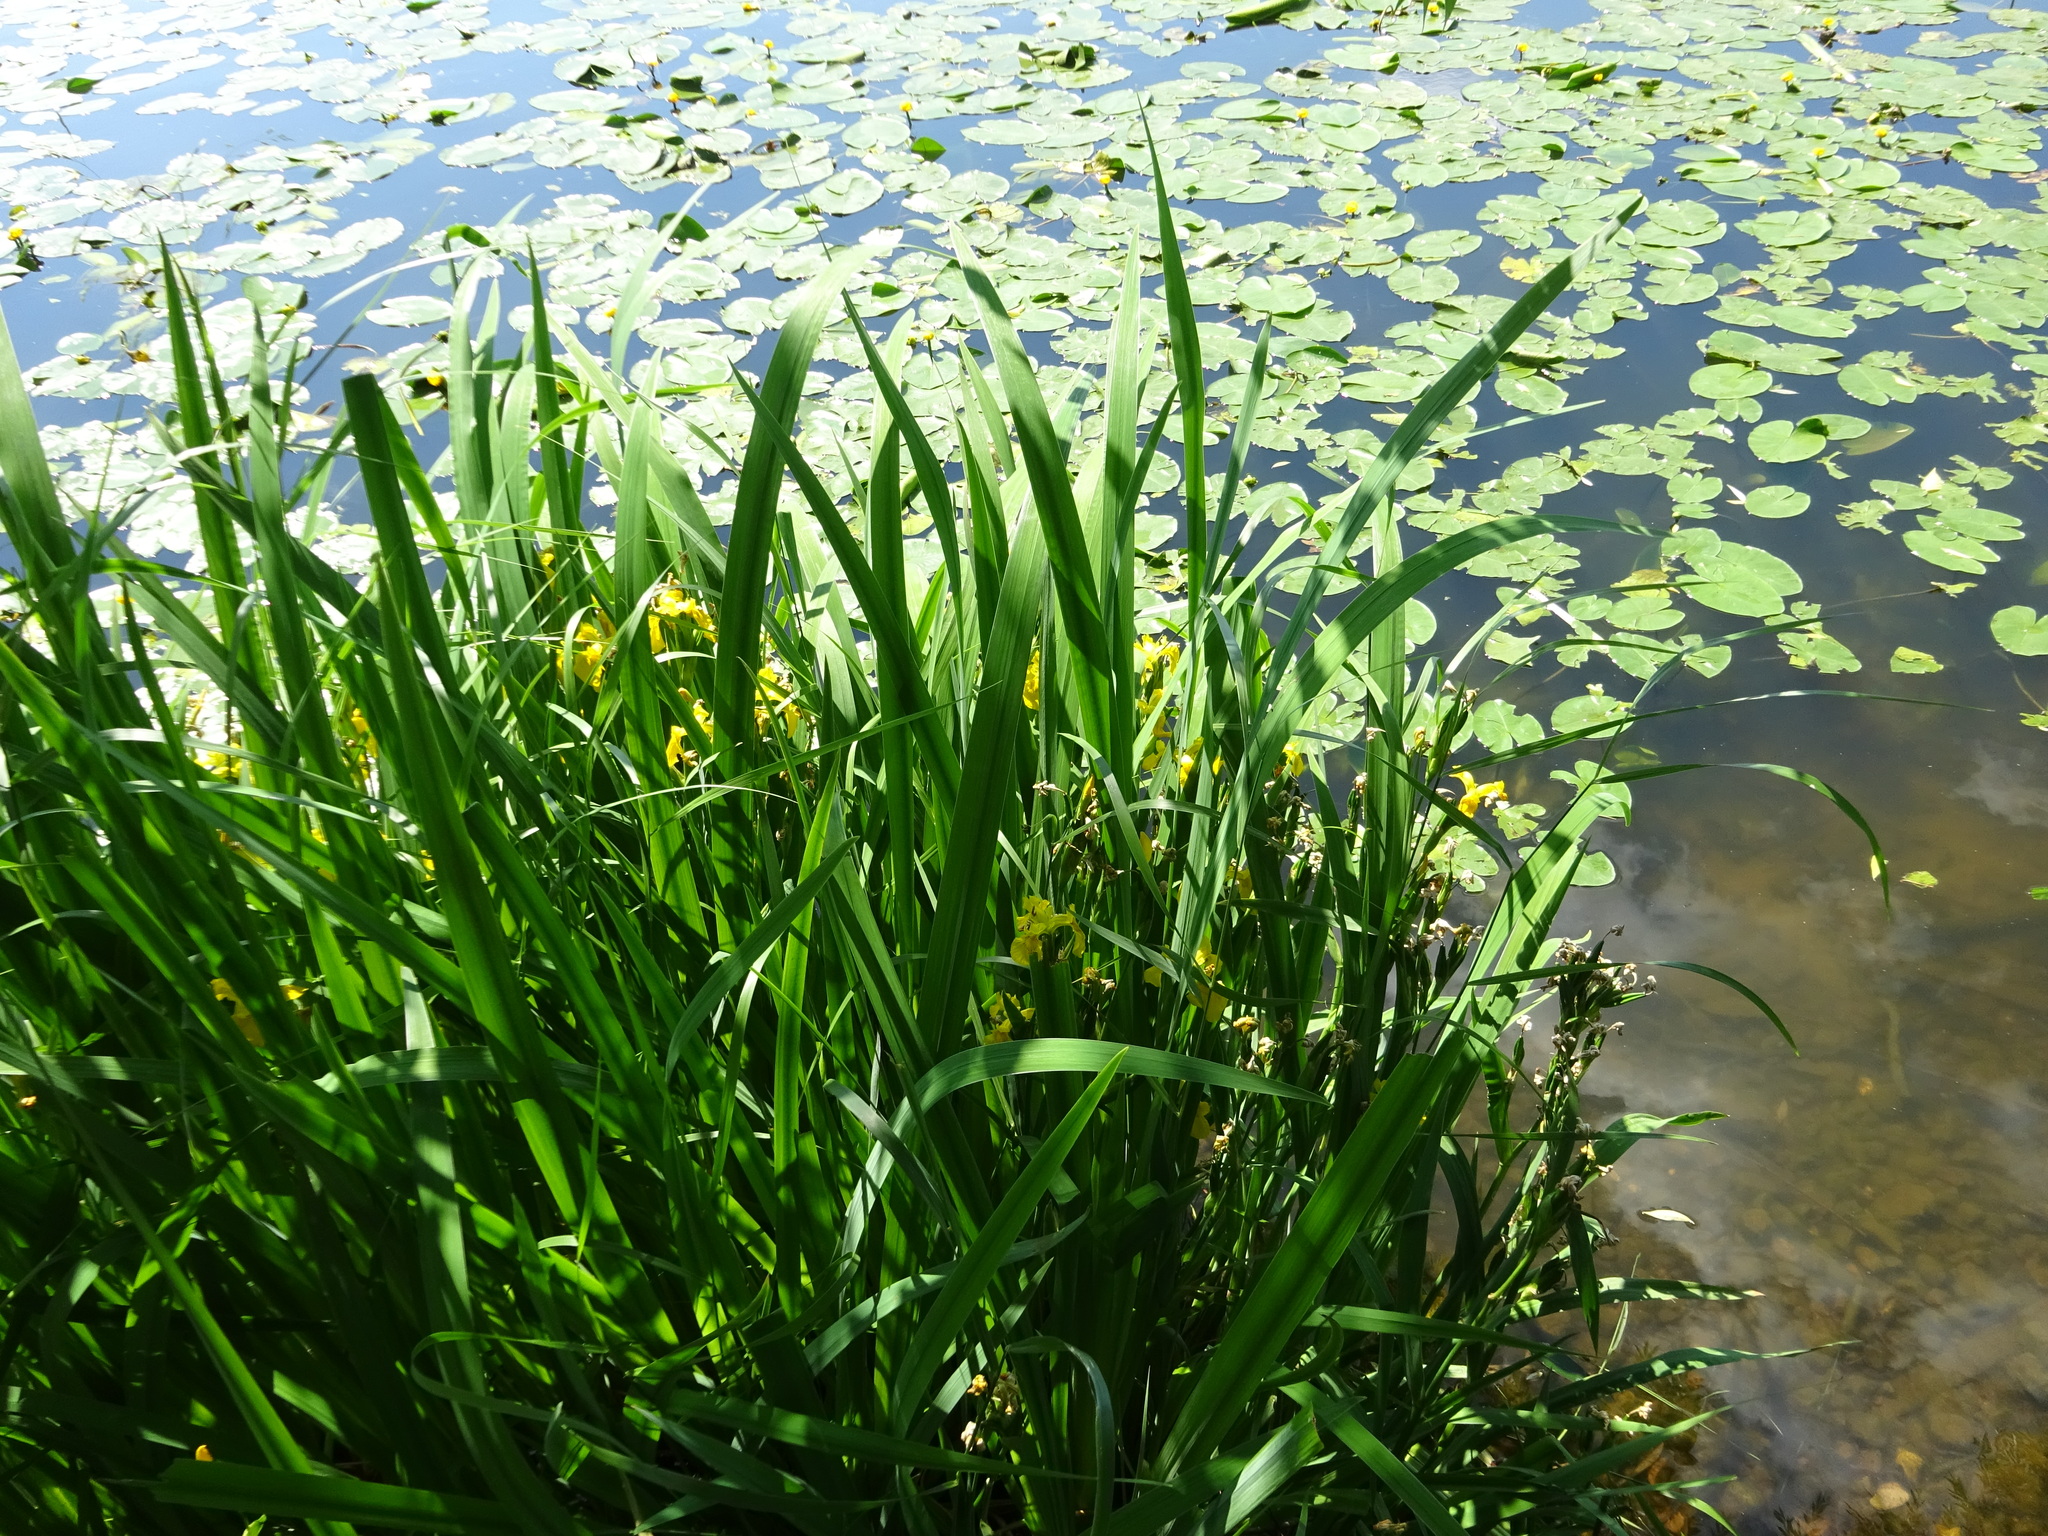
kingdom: Plantae
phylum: Tracheophyta
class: Liliopsida
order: Asparagales
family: Iridaceae
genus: Iris
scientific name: Iris pseudacorus
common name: Yellow flag
